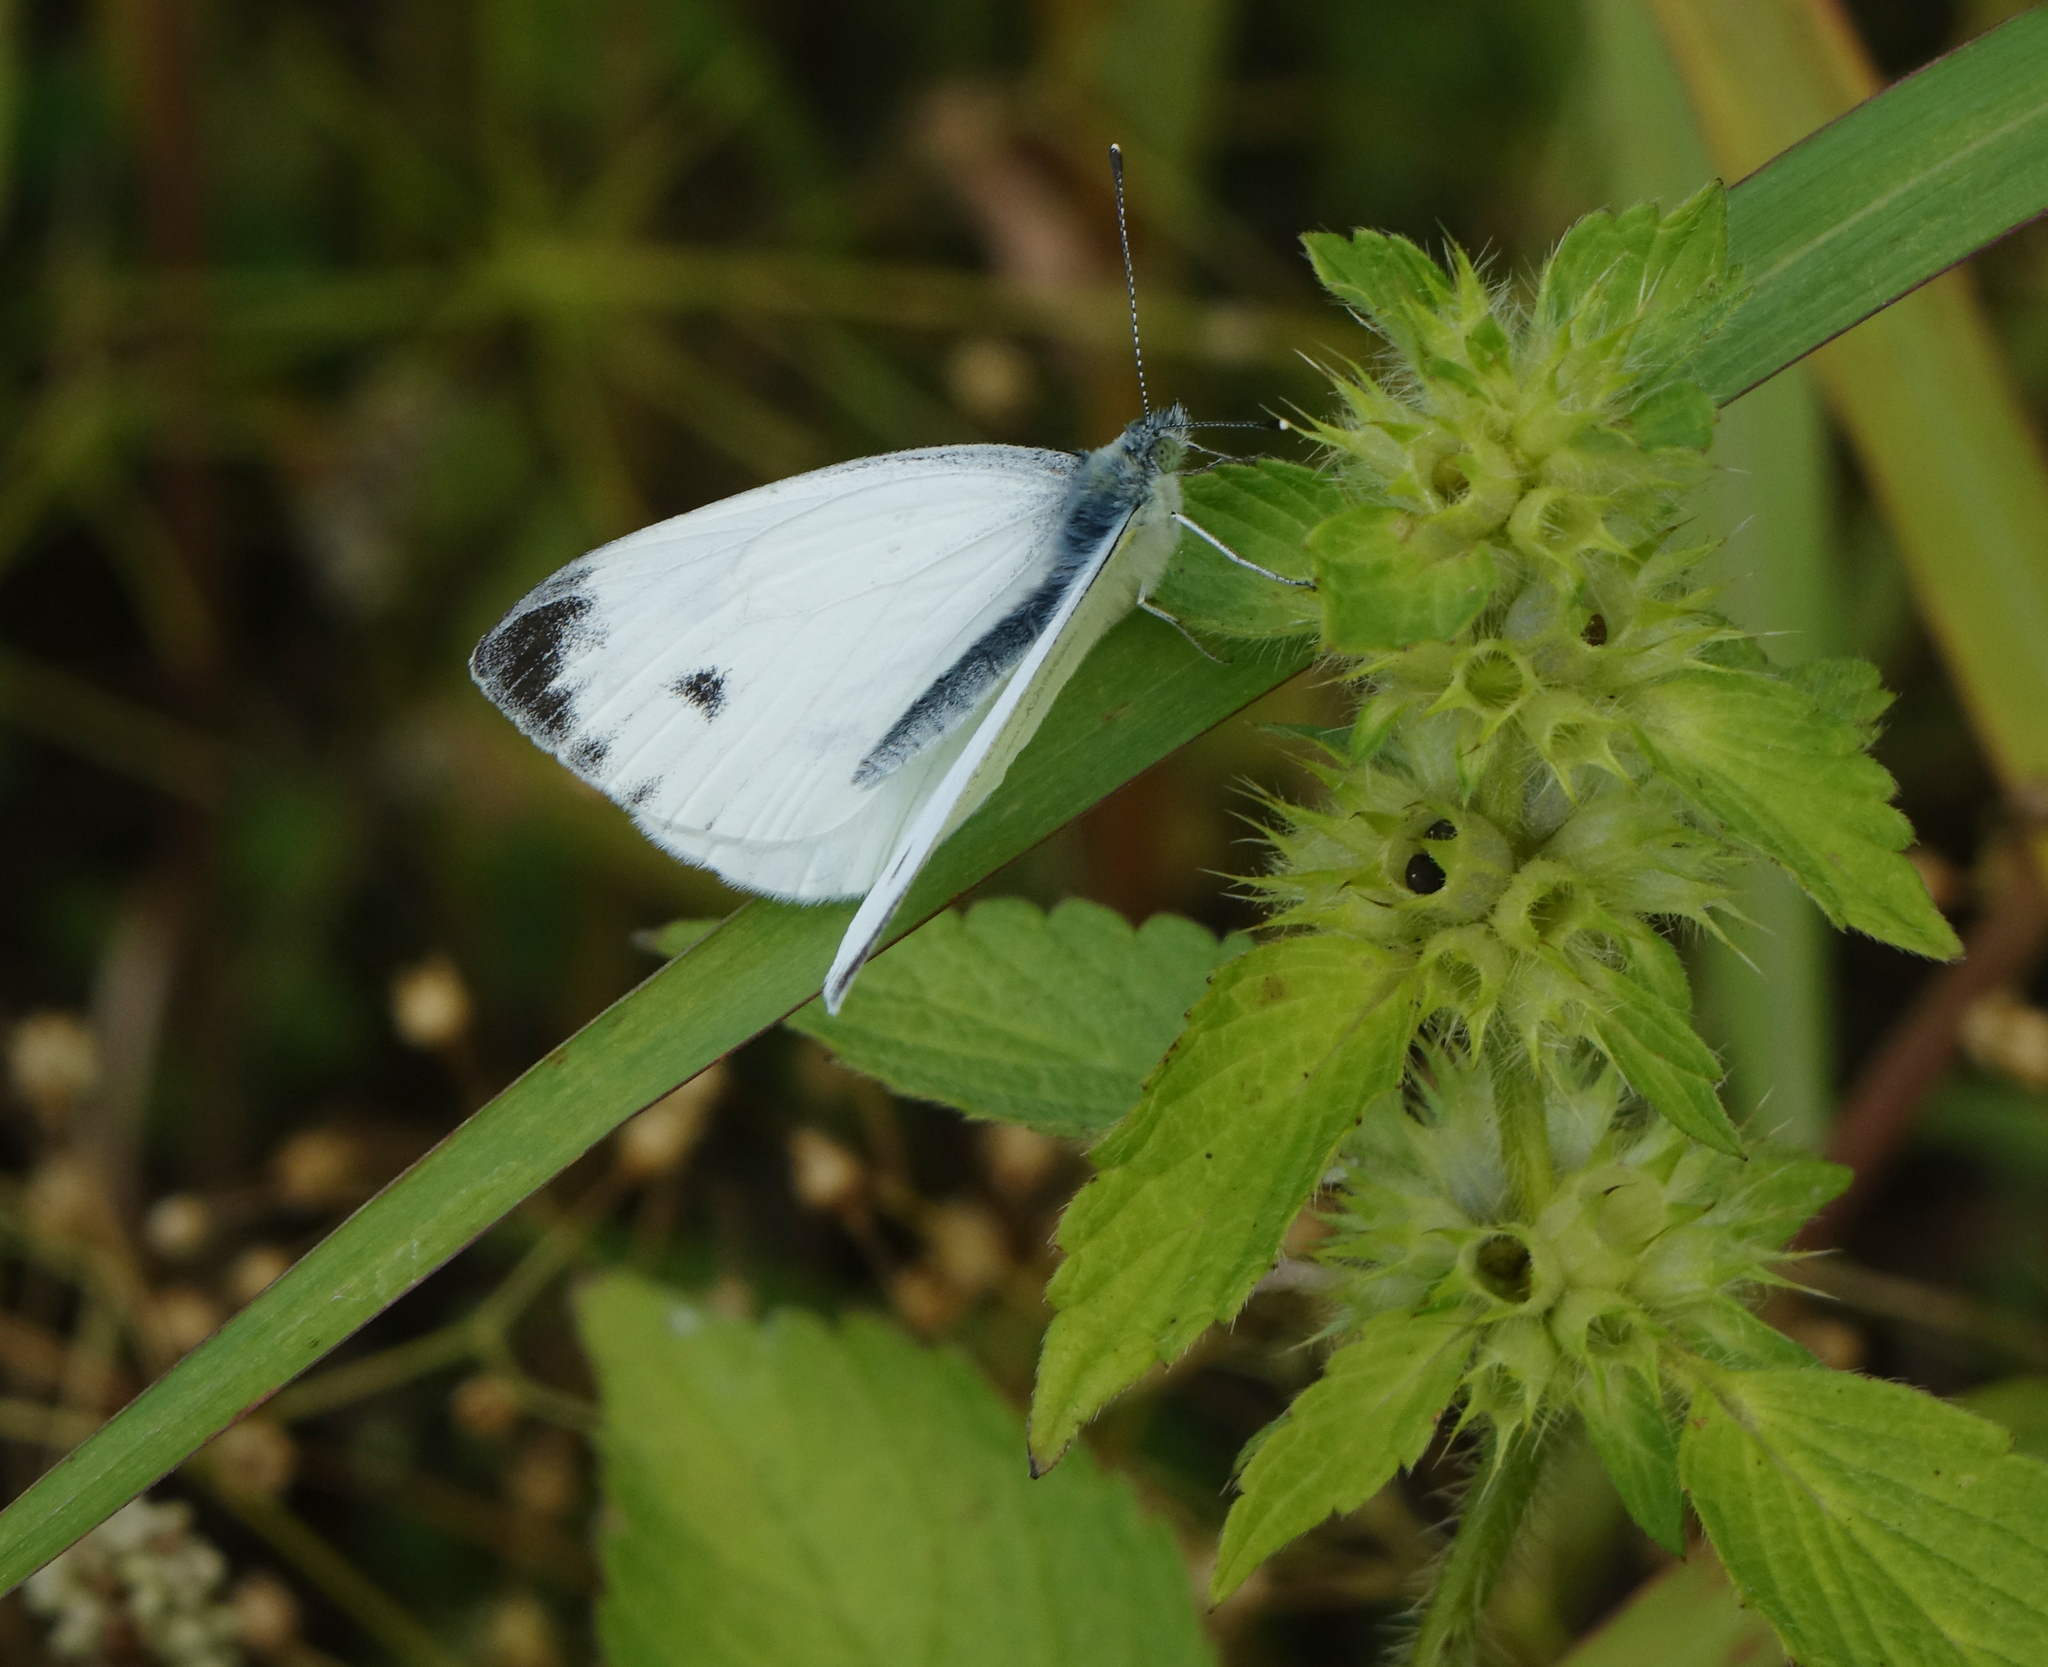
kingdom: Animalia
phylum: Arthropoda
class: Insecta
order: Lepidoptera
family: Pieridae
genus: Pieris
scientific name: Pieris napi
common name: Green-veined white
